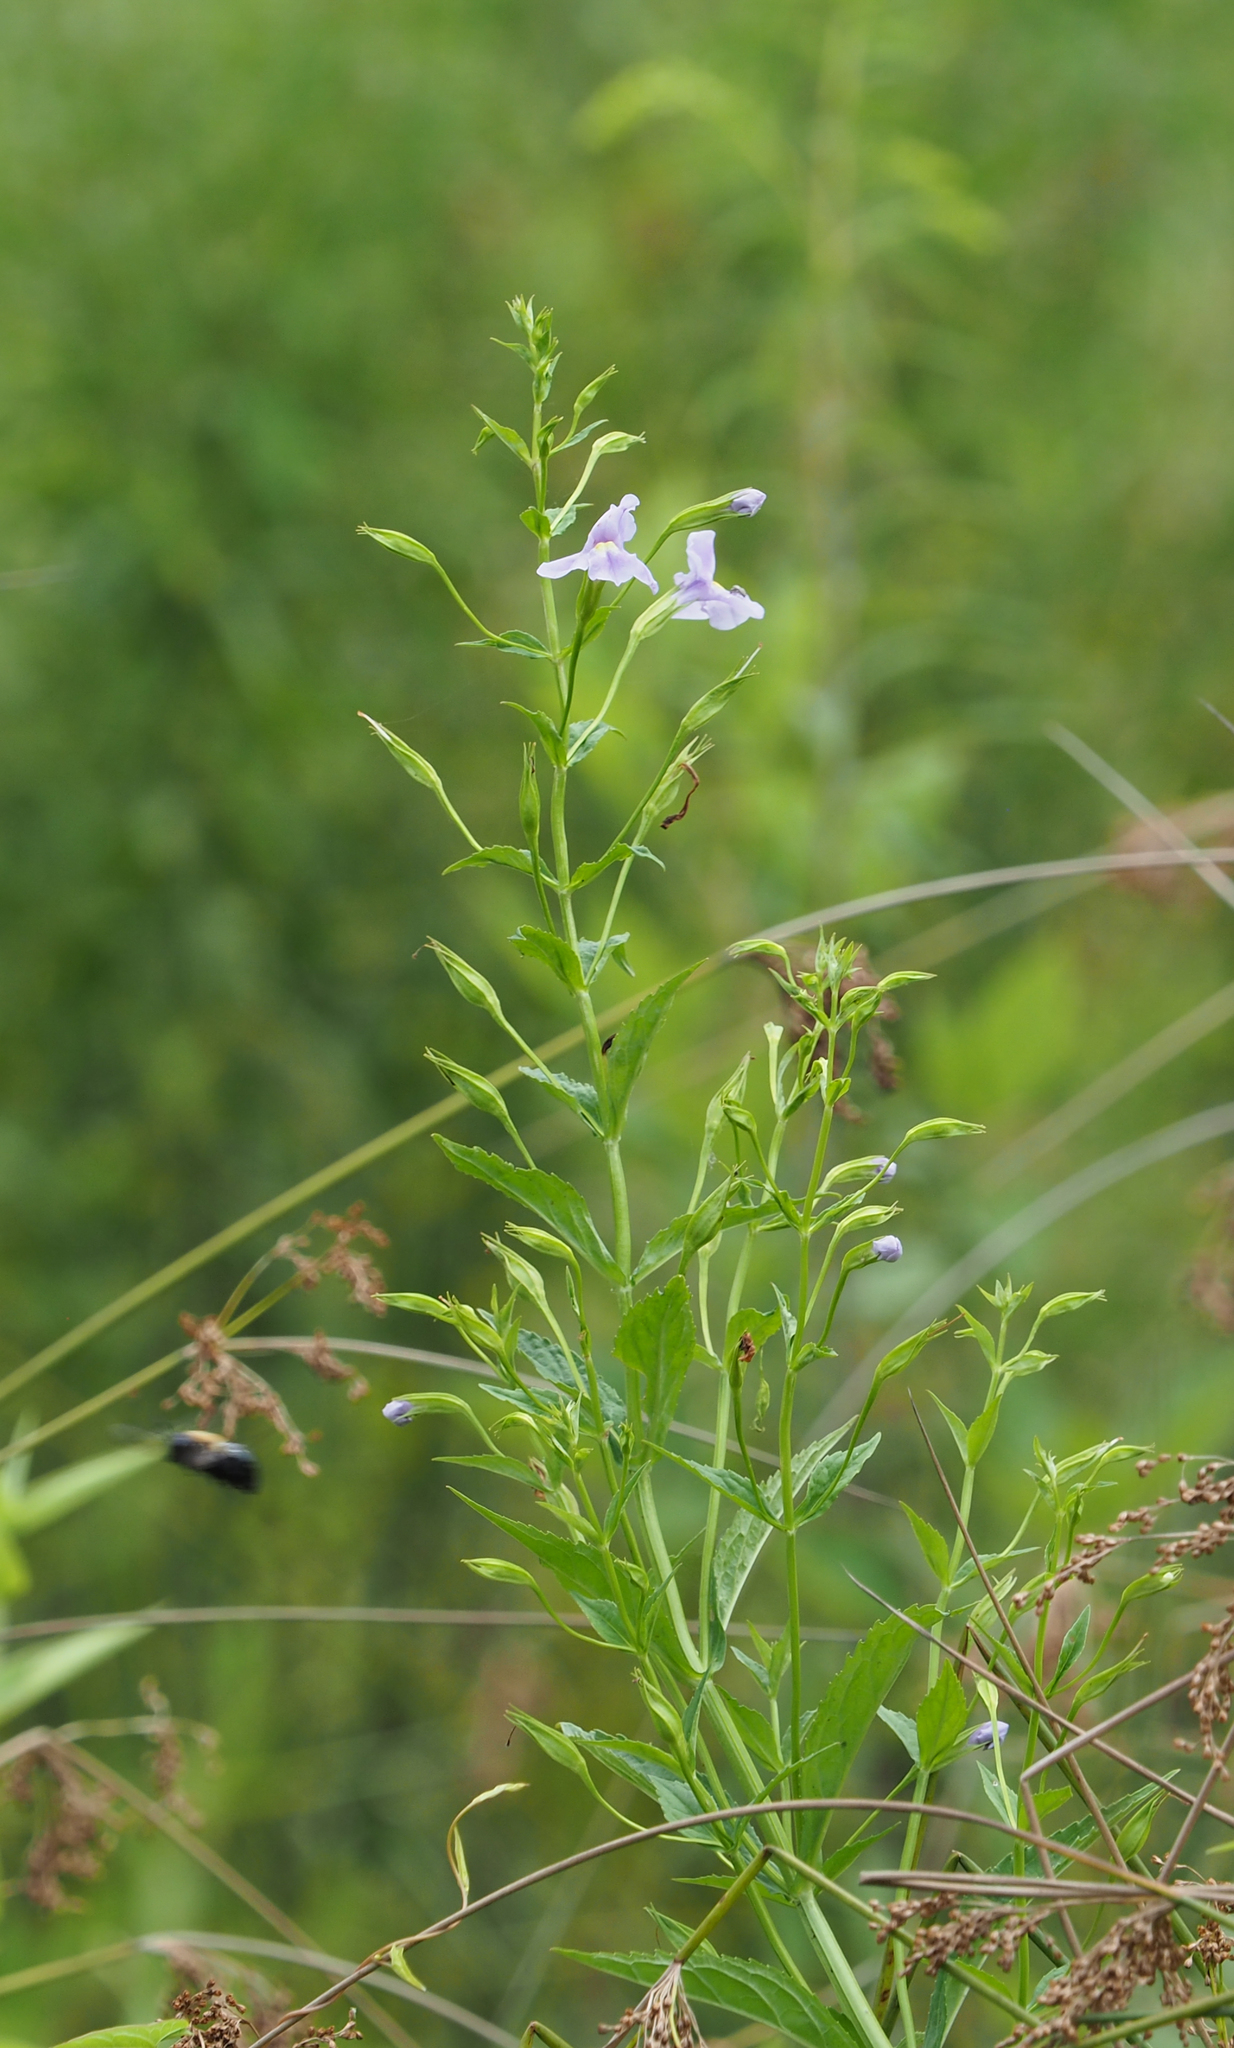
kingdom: Plantae
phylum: Tracheophyta
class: Magnoliopsida
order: Lamiales
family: Phrymaceae
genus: Mimulus
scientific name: Mimulus ringens
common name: Allegheny monkeyflower
